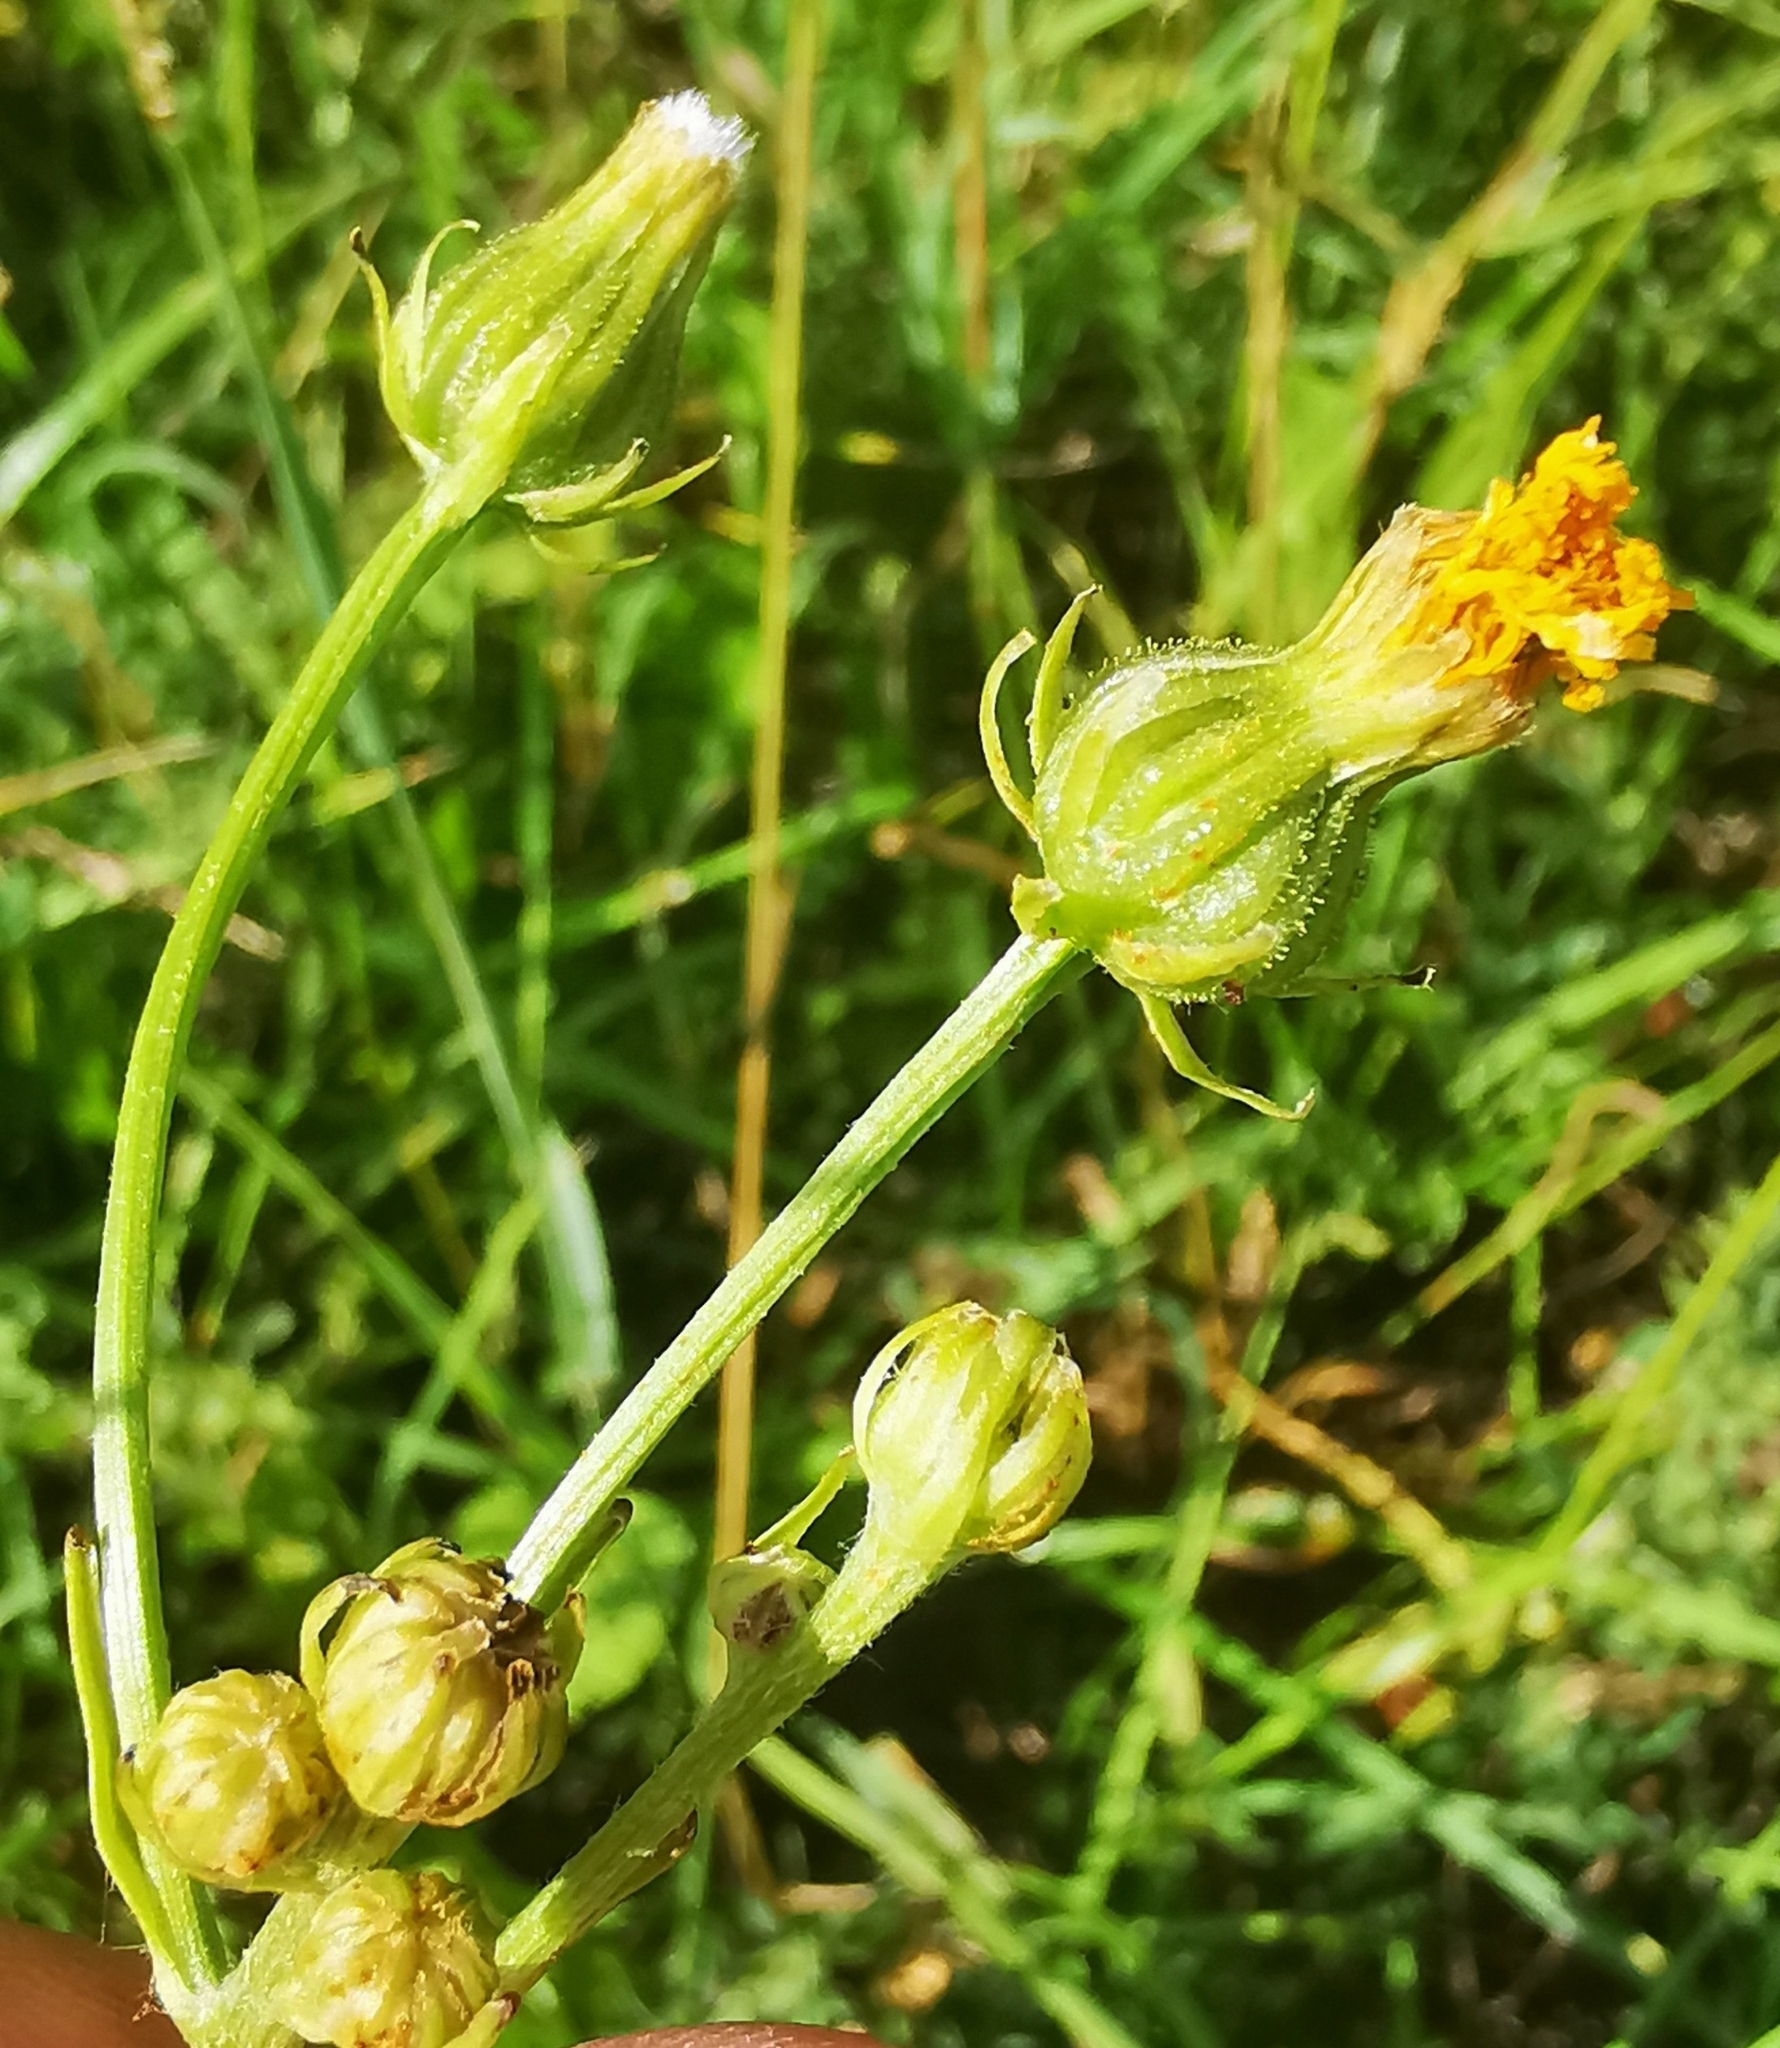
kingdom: Plantae
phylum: Tracheophyta
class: Magnoliopsida
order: Asterales
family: Asteraceae
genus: Crepis
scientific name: Crepis biennis
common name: Rough hawk's-beard
